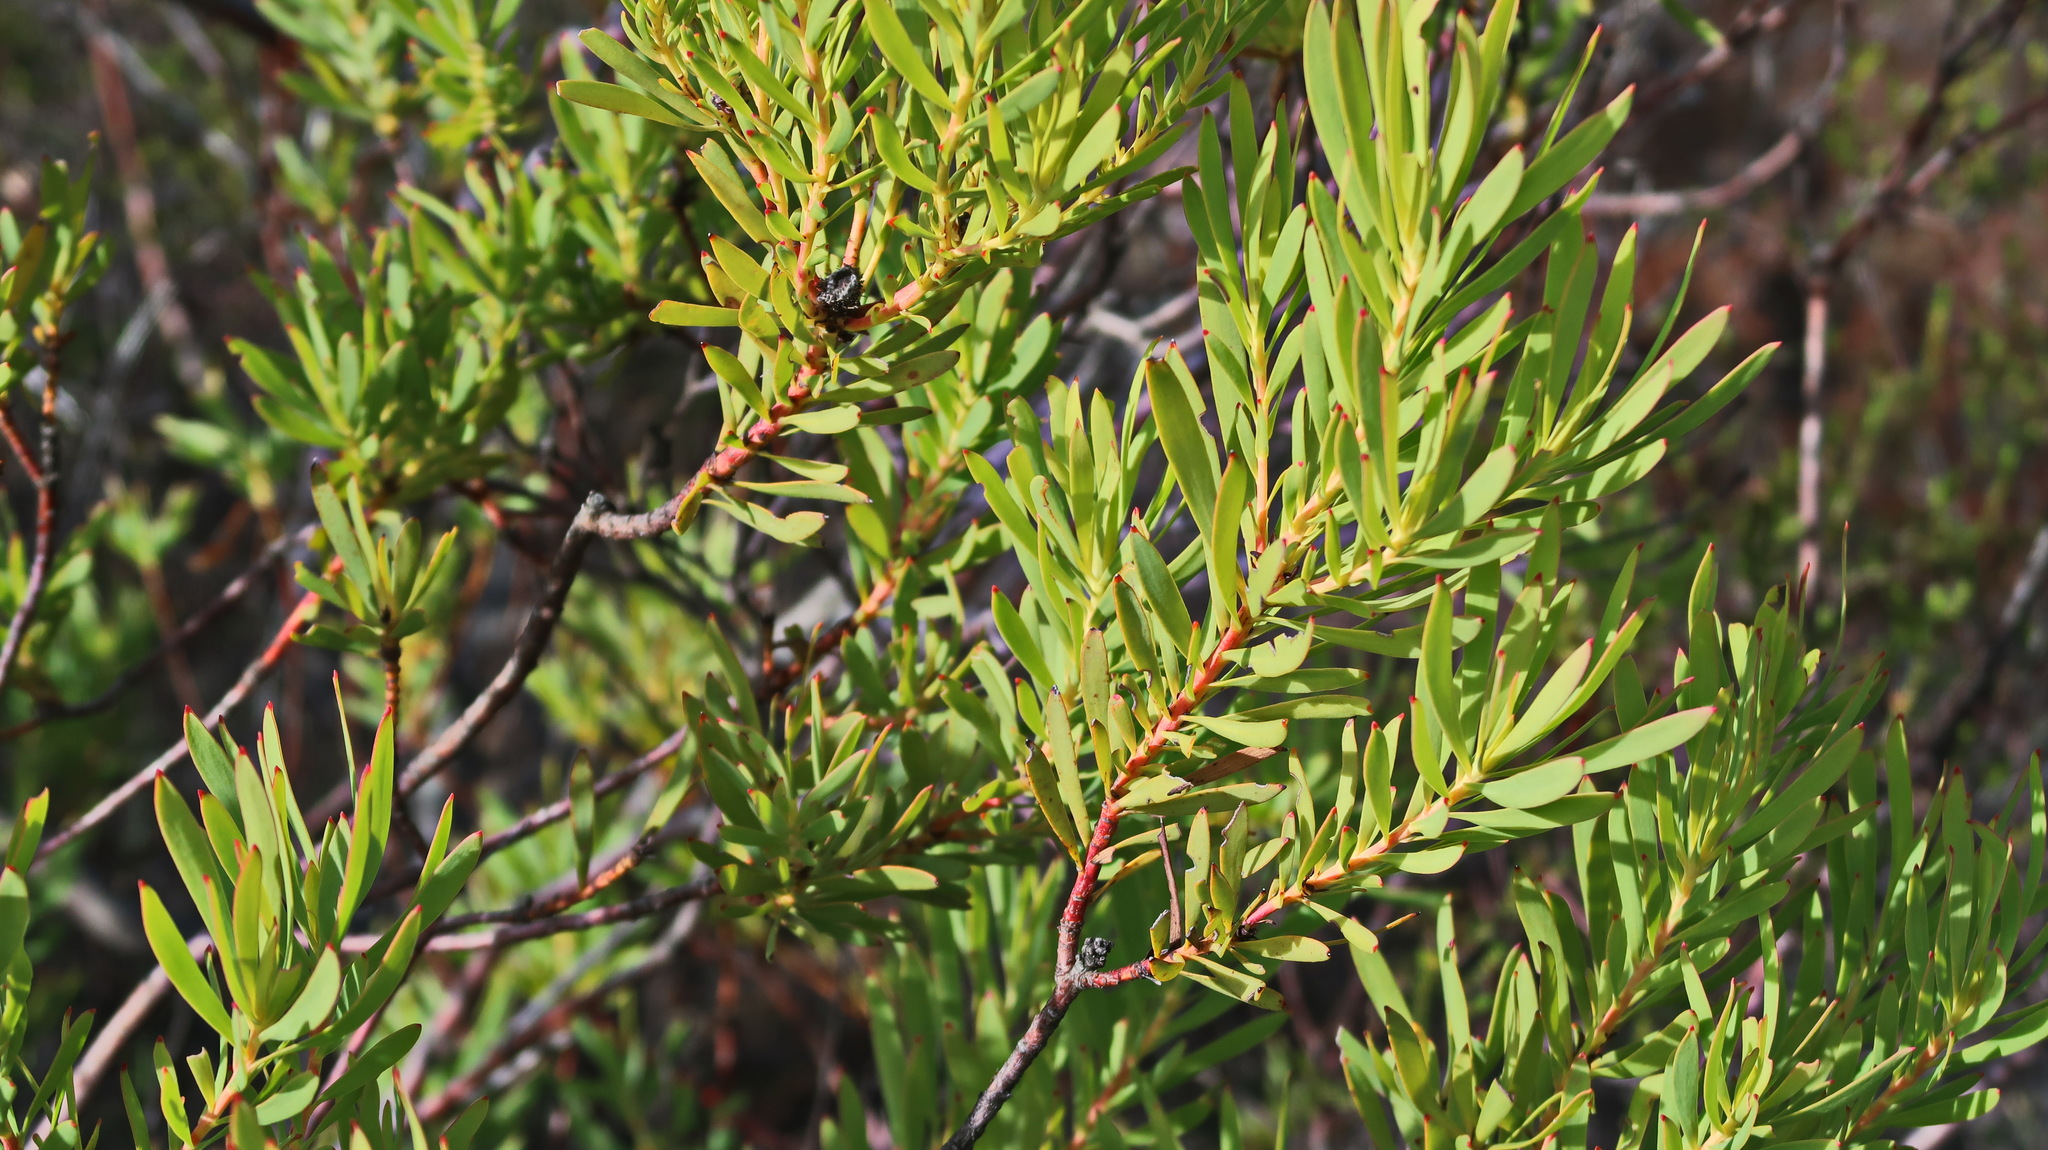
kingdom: Plantae
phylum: Tracheophyta
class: Magnoliopsida
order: Proteales
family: Proteaceae
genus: Leucadendron
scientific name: Leucadendron salignum
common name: Common sunshine conebush
